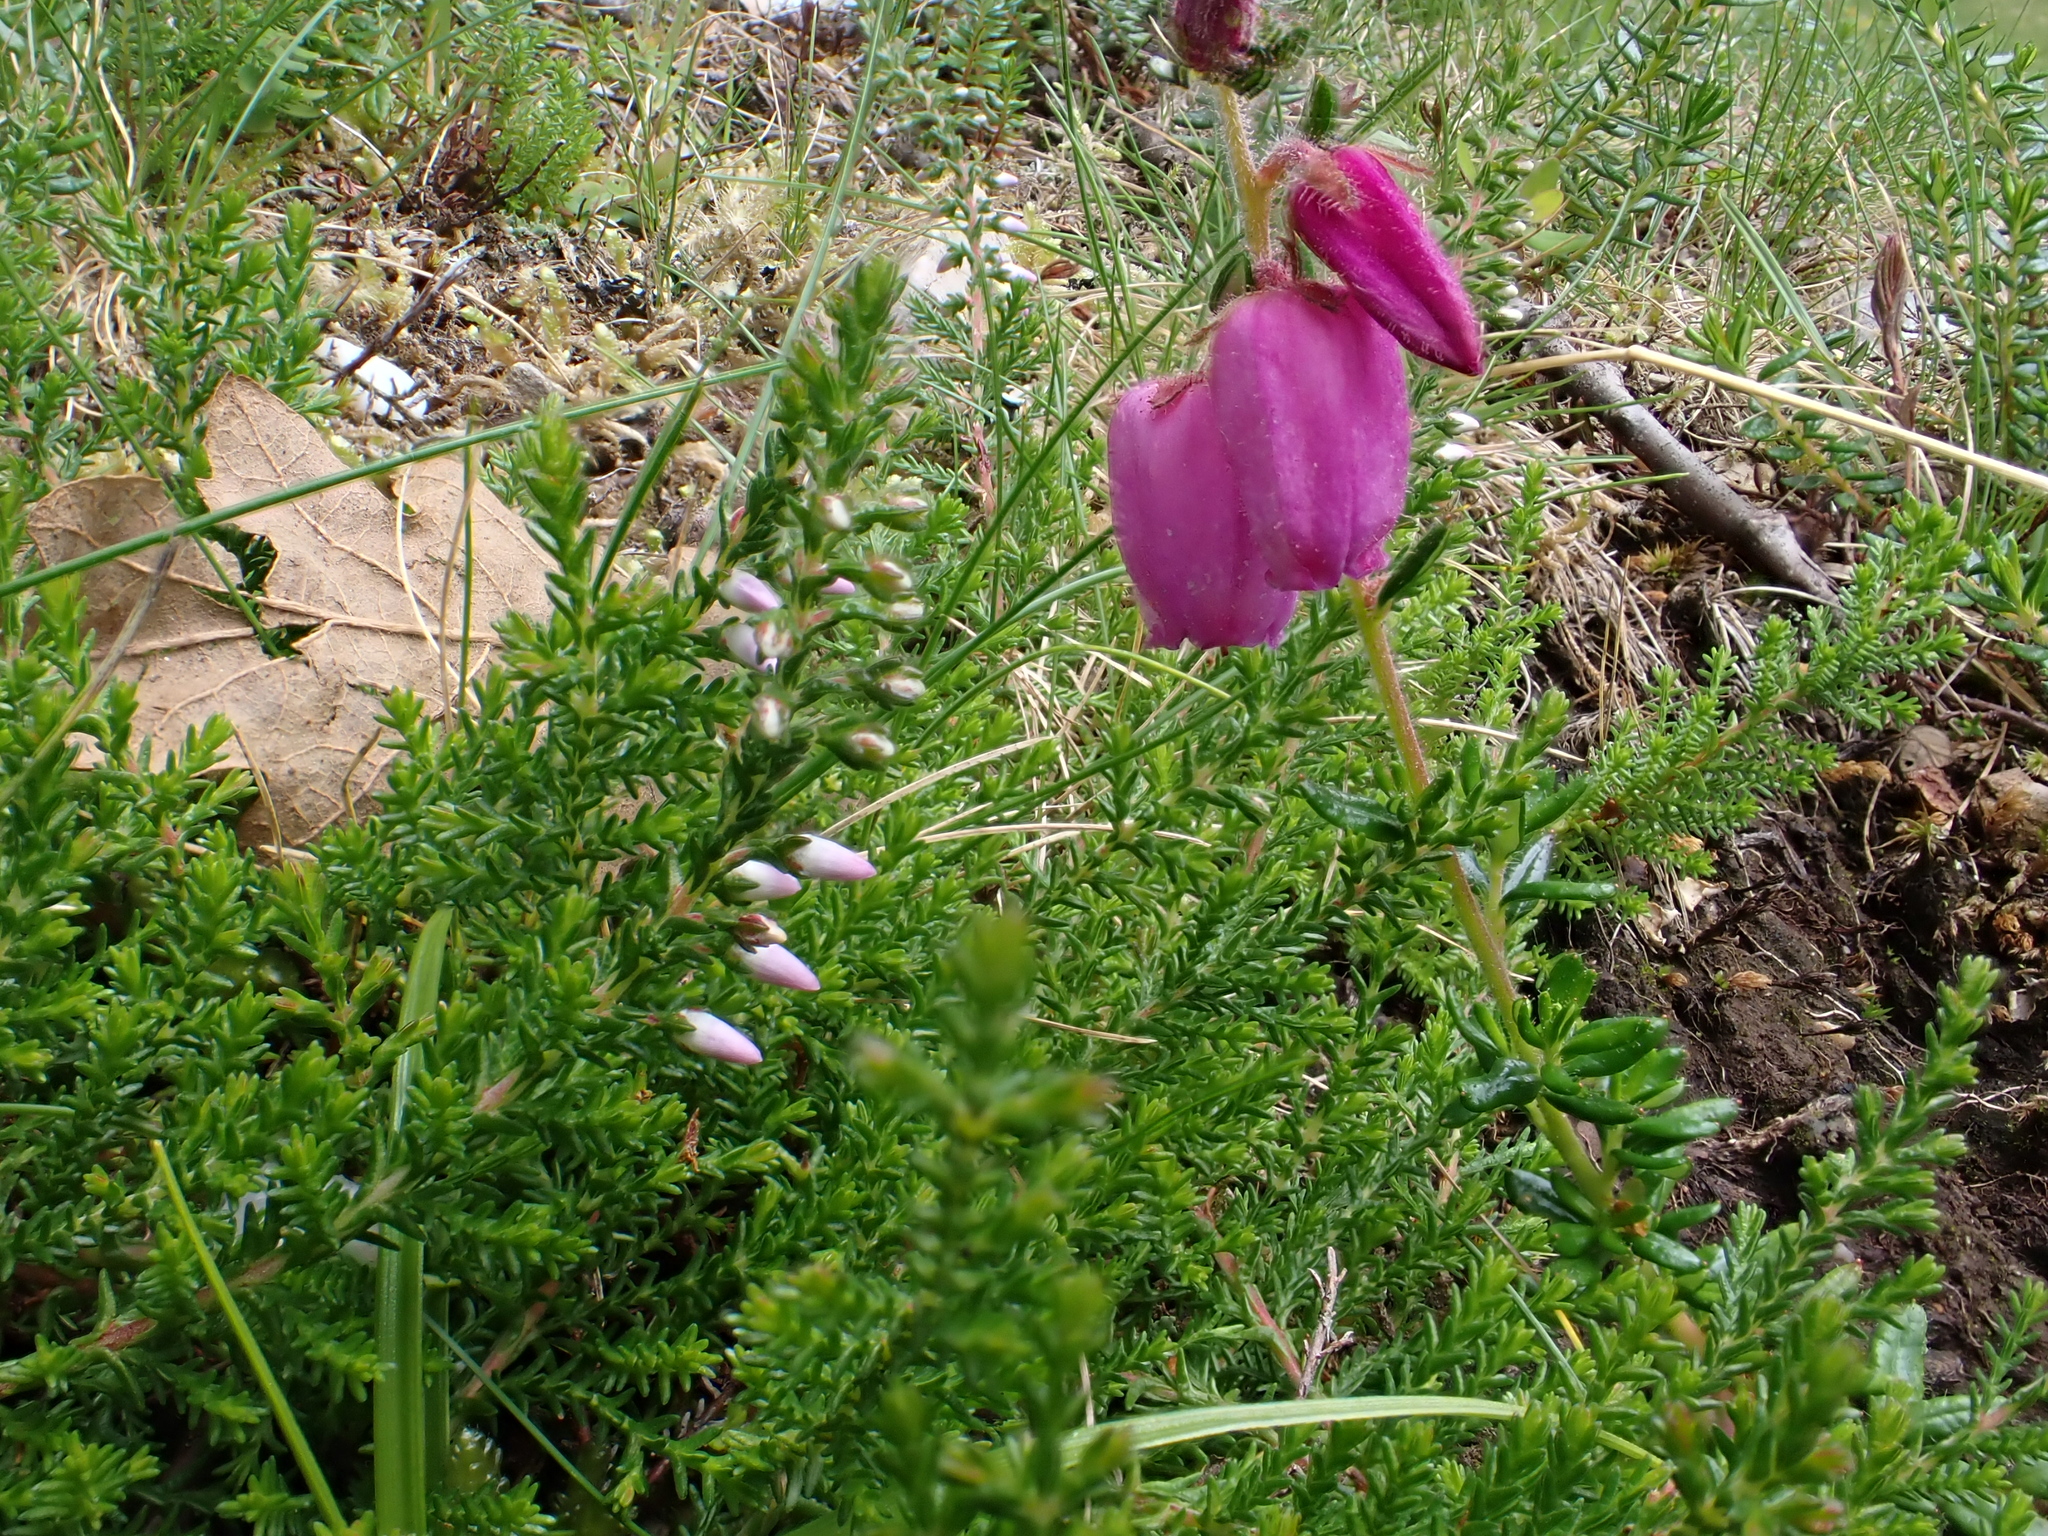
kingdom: Plantae
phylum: Tracheophyta
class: Magnoliopsida
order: Ericales
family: Ericaceae
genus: Daboecia
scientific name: Daboecia cantabrica
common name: St. dabeoc's-heath
